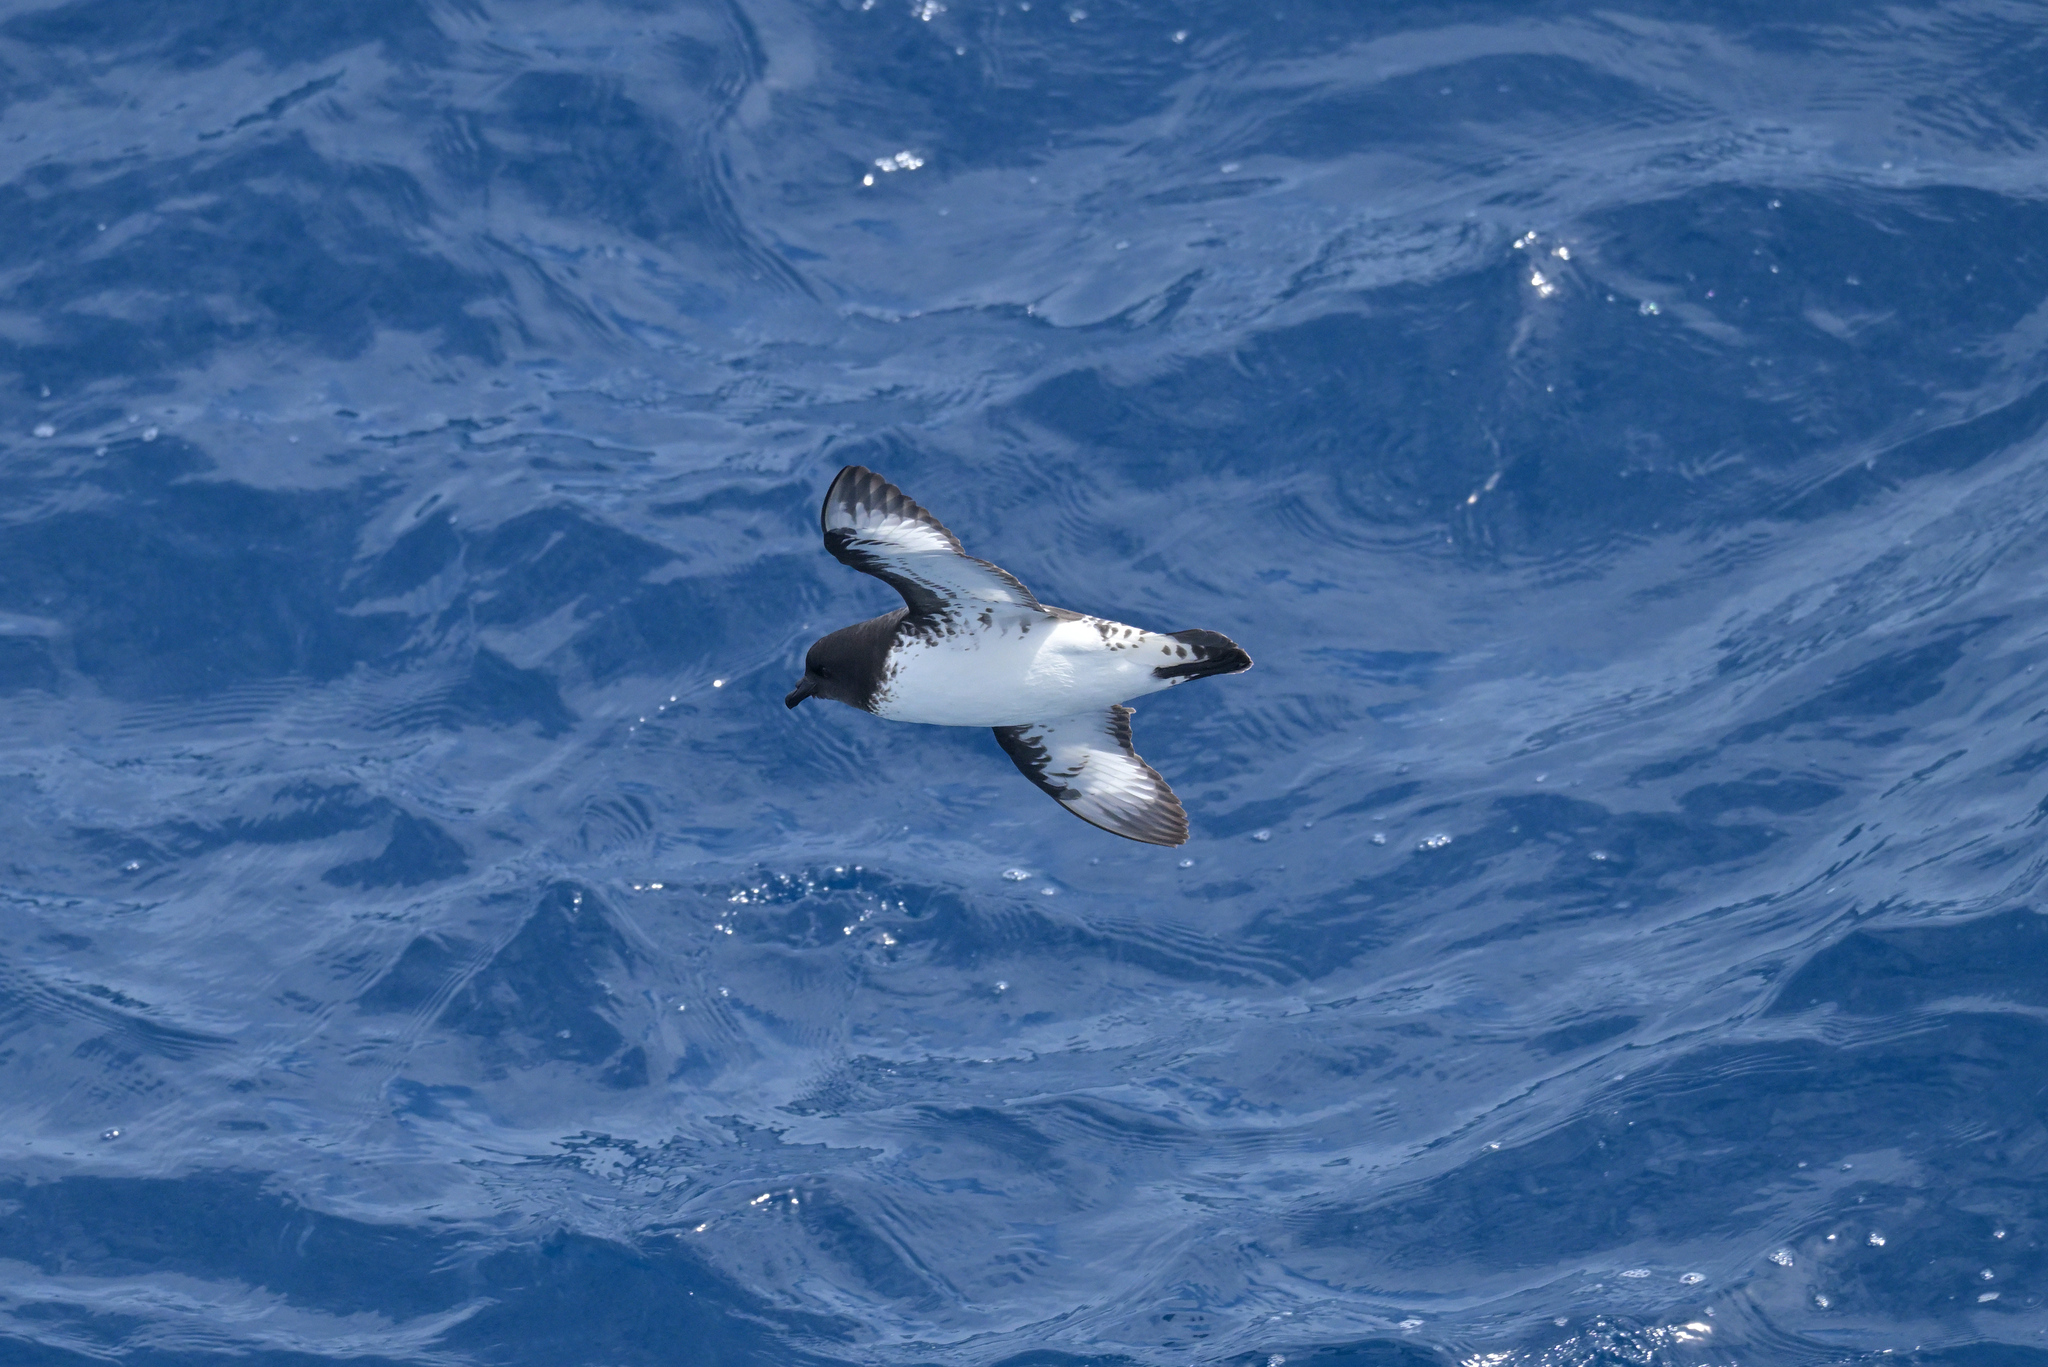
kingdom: Animalia
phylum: Chordata
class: Aves
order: Procellariiformes
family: Procellariidae
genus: Daption
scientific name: Daption capense
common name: Cape petrel
